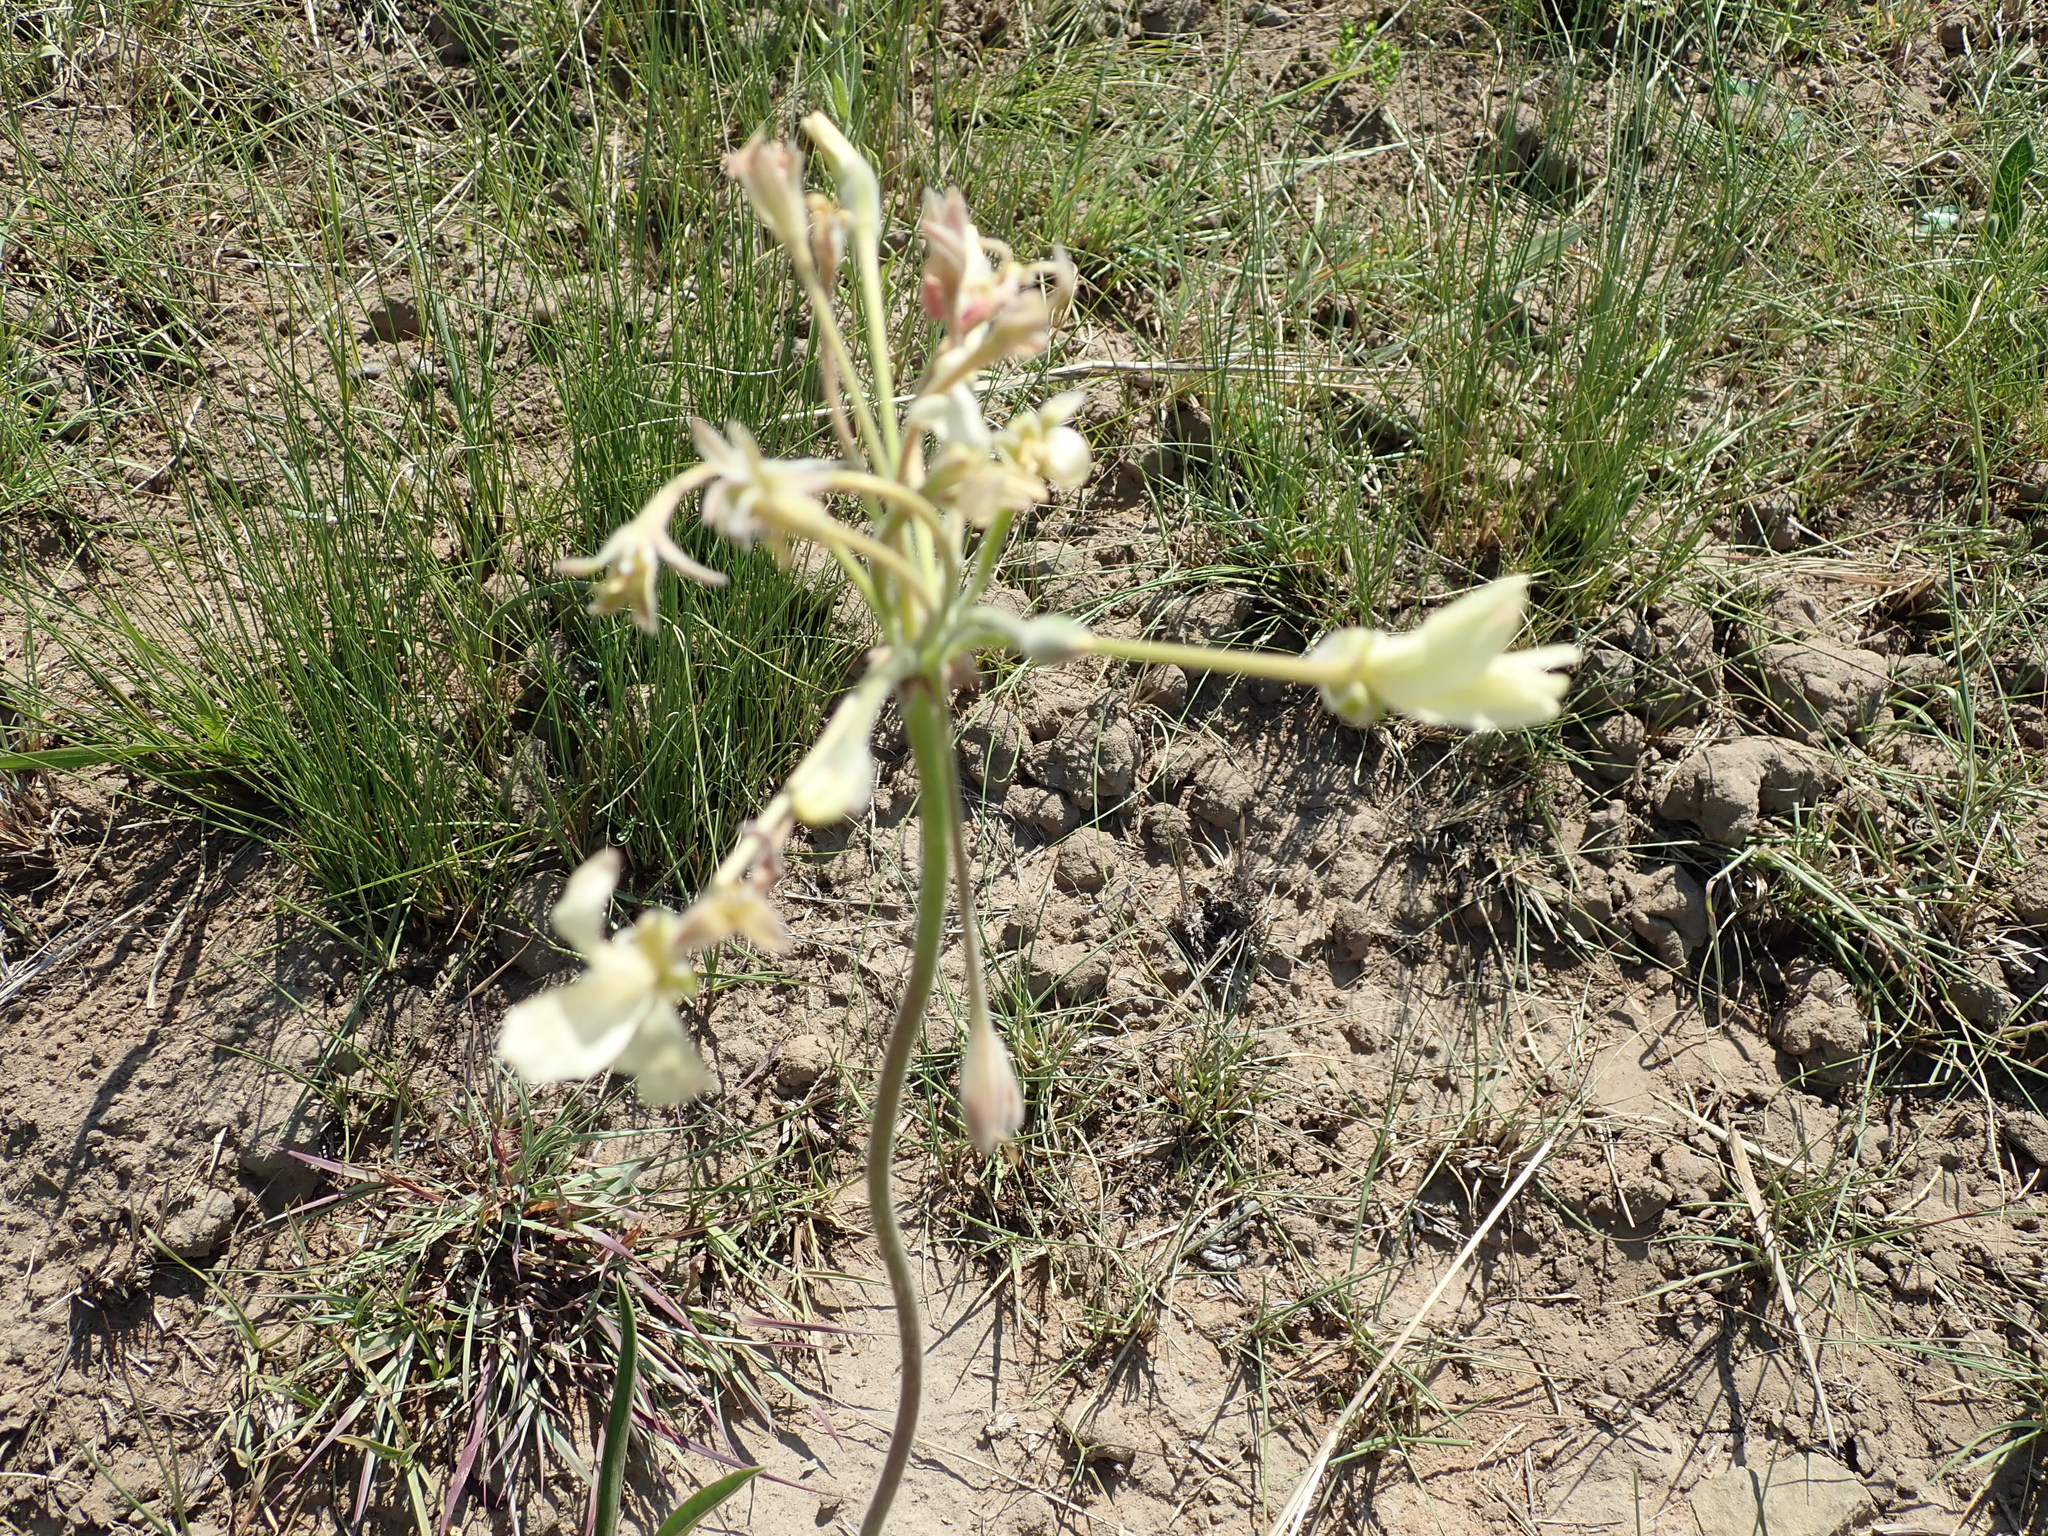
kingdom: Plantae
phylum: Tracheophyta
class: Magnoliopsida
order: Geraniales
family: Geraniaceae
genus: Pelargonium
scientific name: Pelargonium luridum
